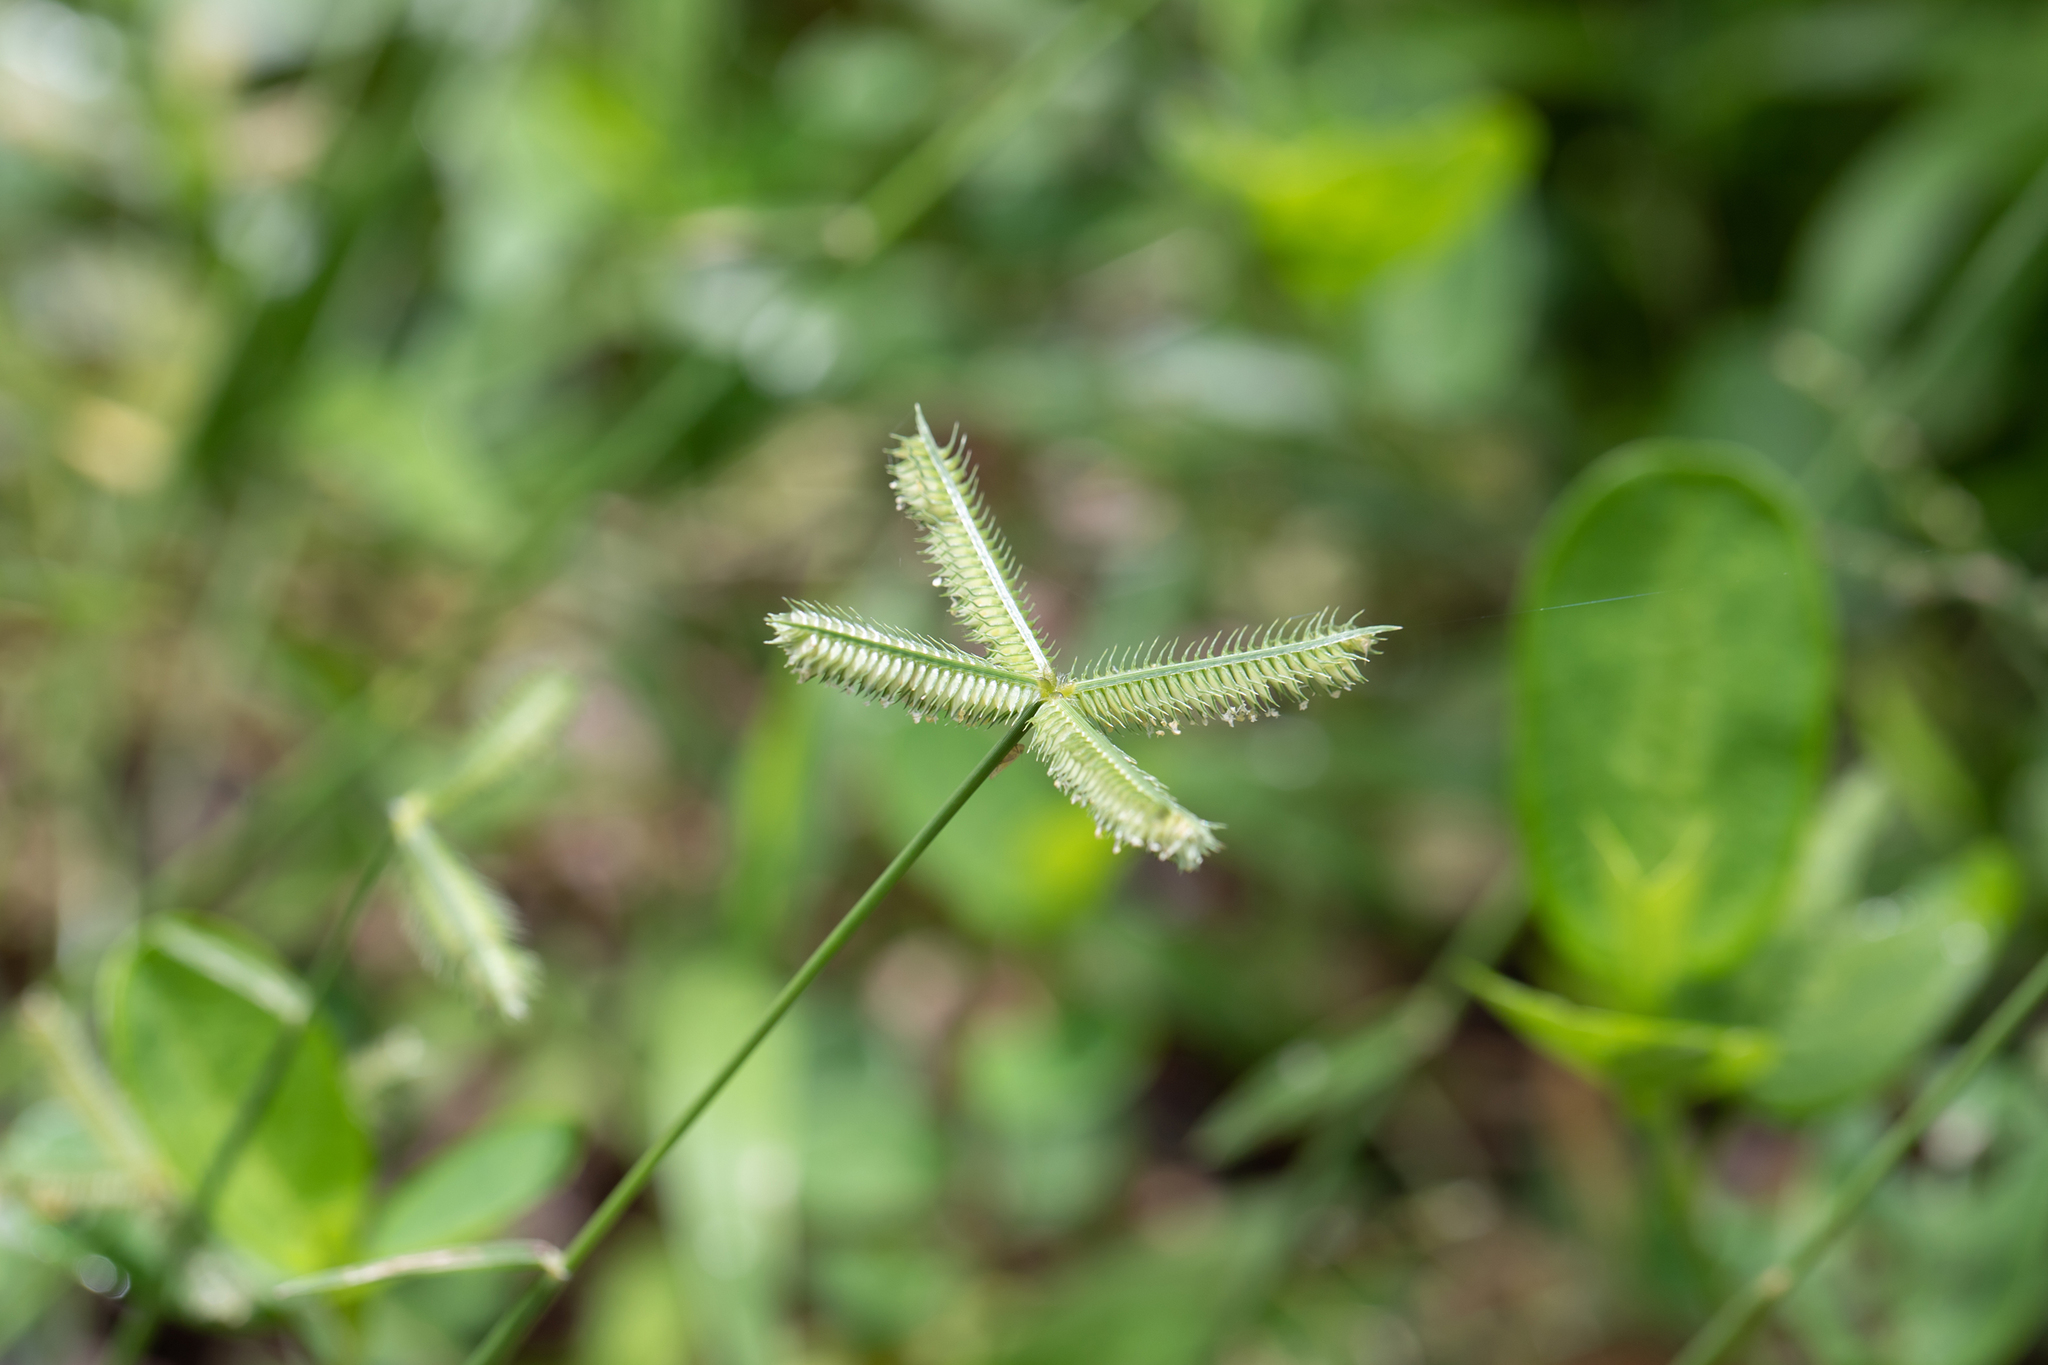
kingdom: Plantae
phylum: Tracheophyta
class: Liliopsida
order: Poales
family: Poaceae
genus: Dactyloctenium
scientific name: Dactyloctenium aegyptium
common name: Egyptian grass
